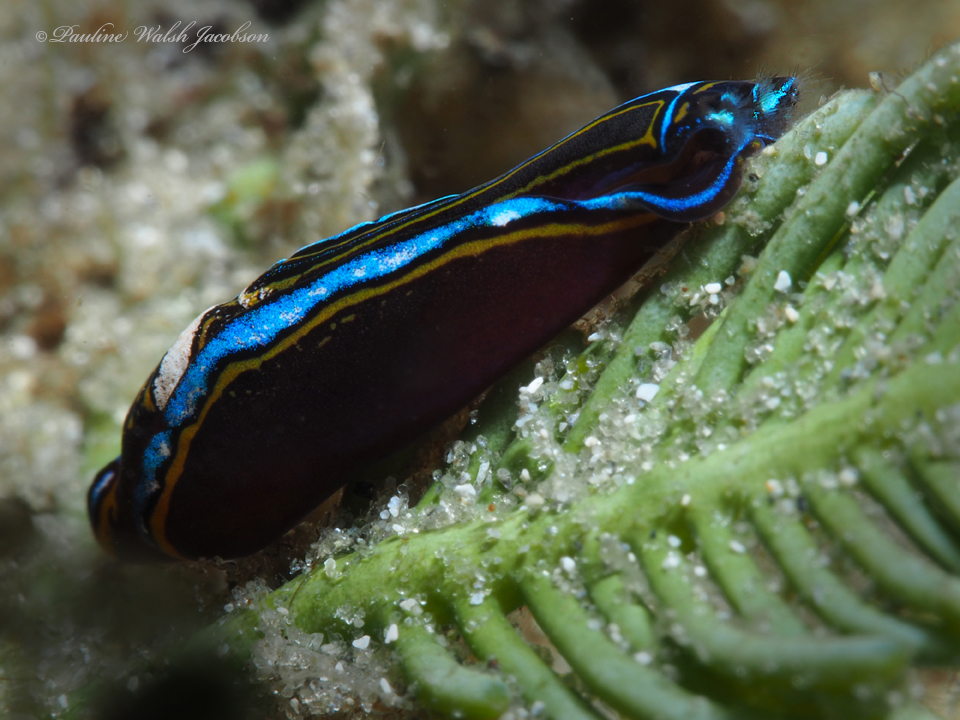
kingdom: Animalia
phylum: Mollusca
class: Gastropoda
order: Cephalaspidea
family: Aglajidae
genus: Chelidonura
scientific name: Chelidonura hirundinina
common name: Leech headshield slug
